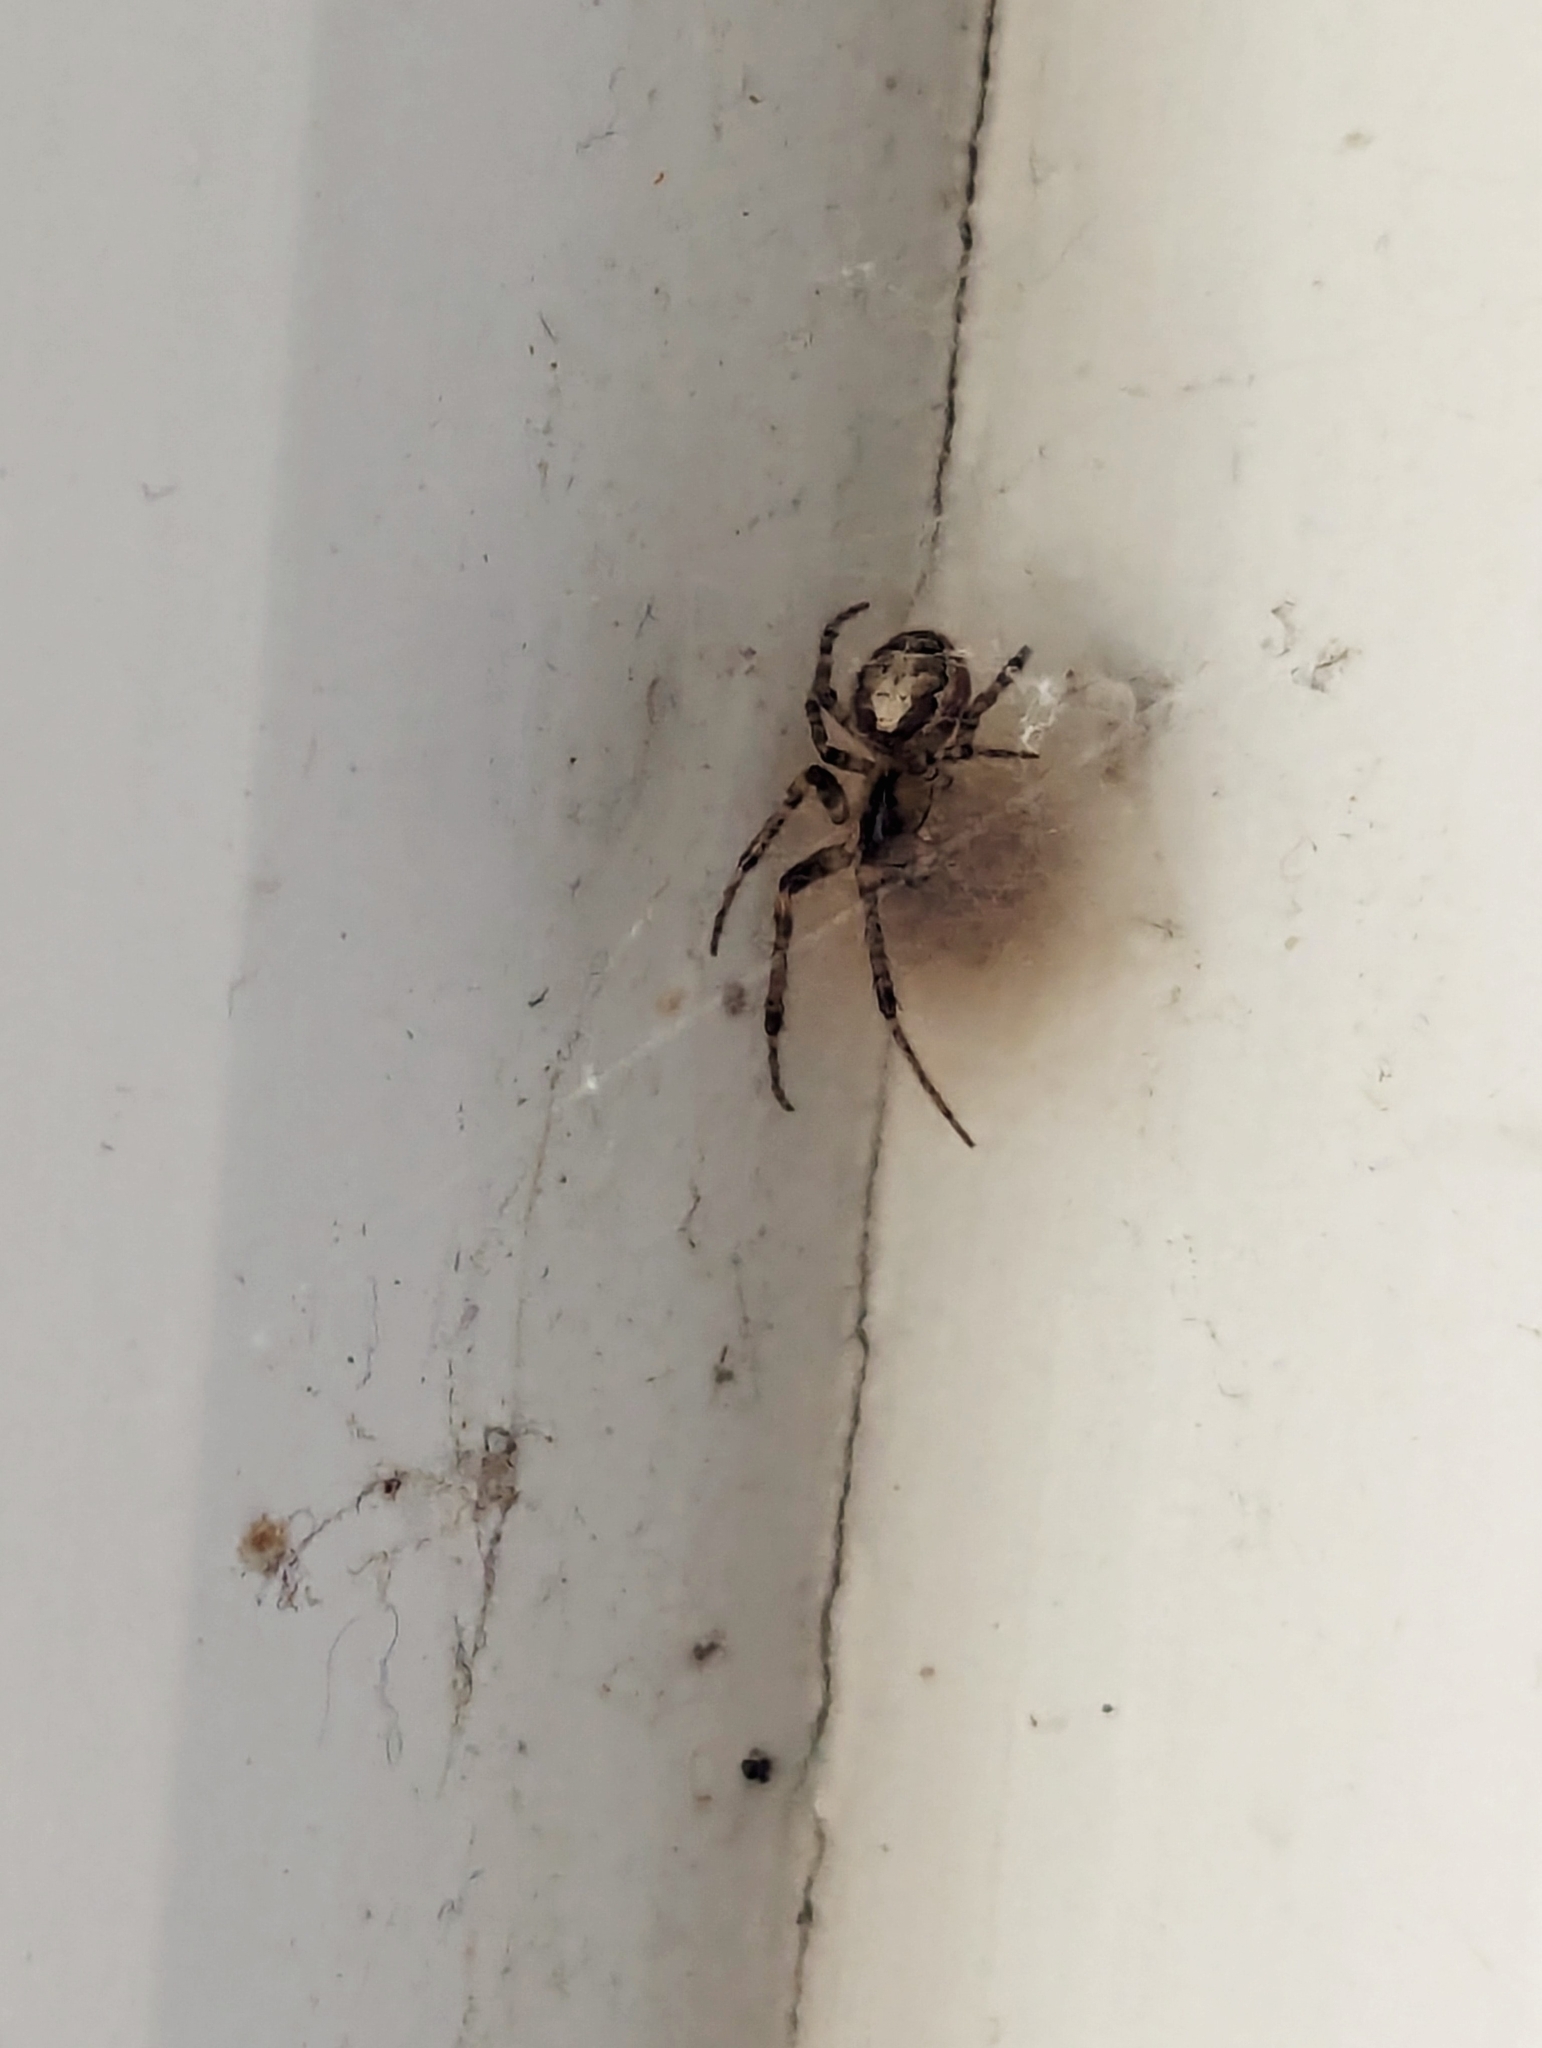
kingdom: Animalia
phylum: Arthropoda
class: Arachnida
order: Araneae
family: Araneidae
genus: Zygiella
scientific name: Zygiella x-notata
